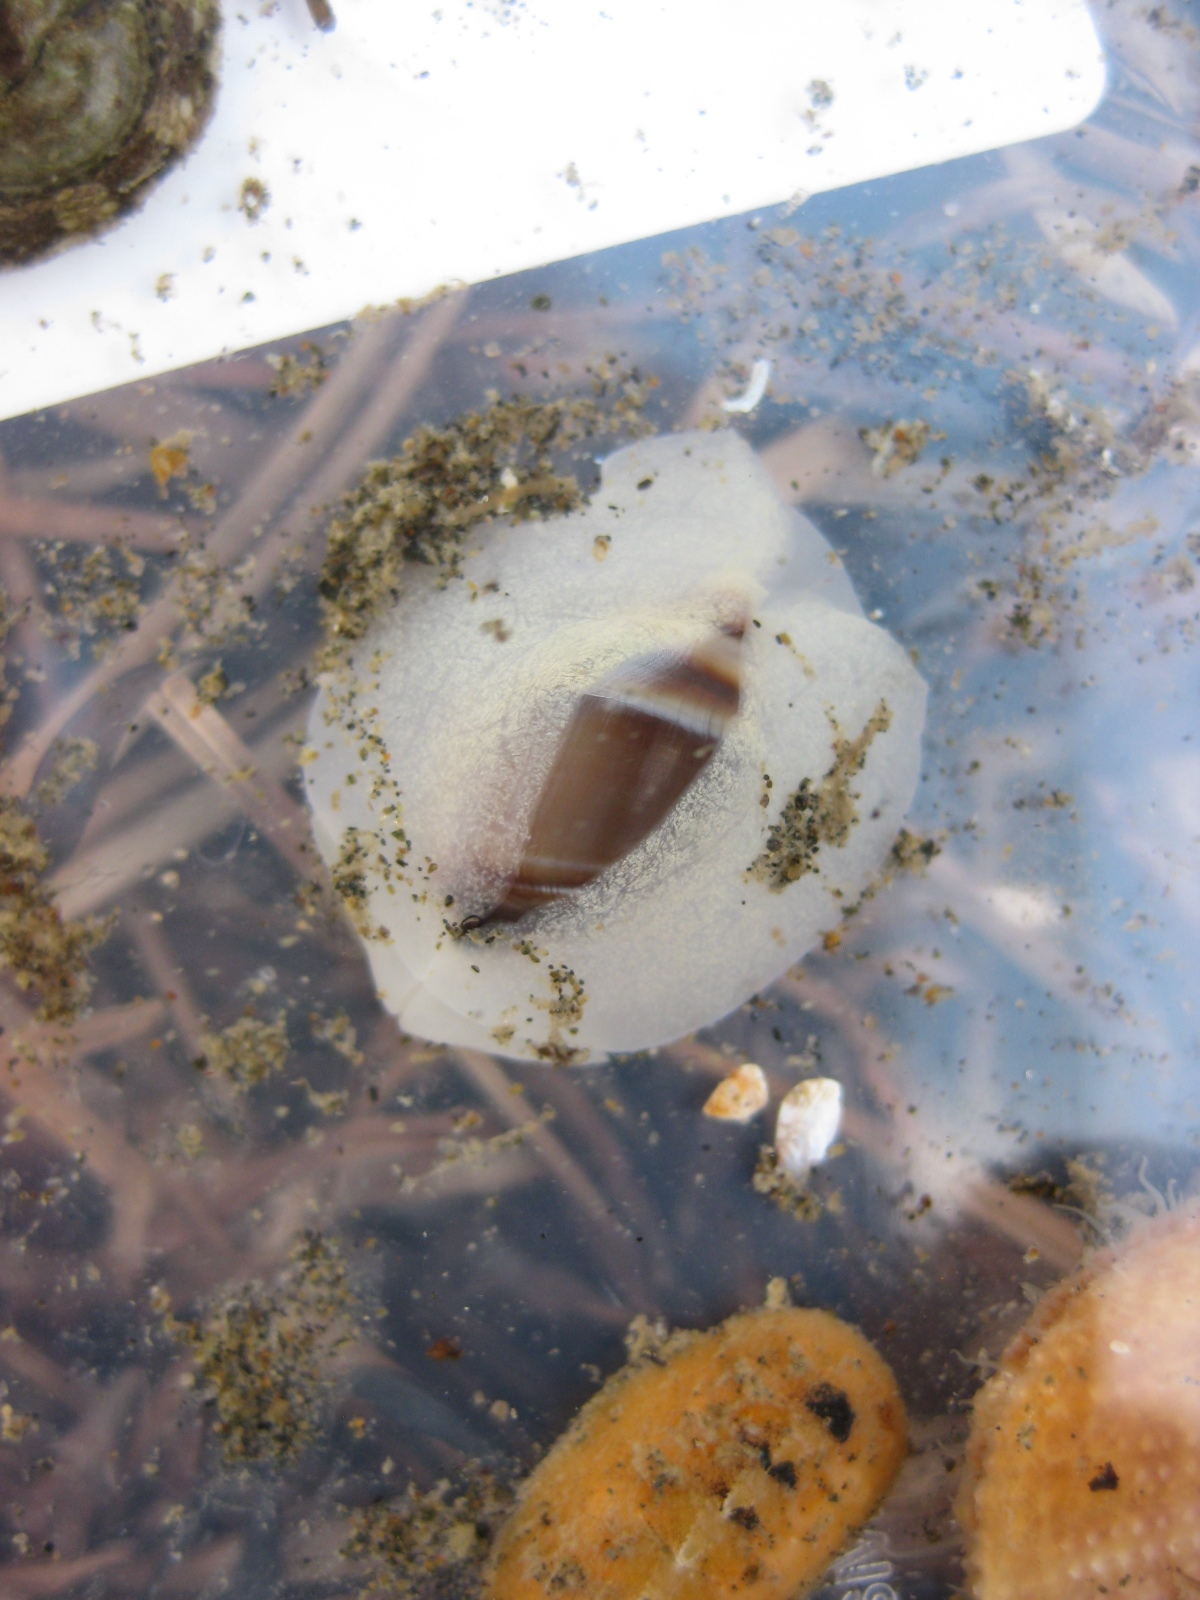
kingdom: Animalia
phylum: Mollusca
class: Gastropoda
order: Neogastropoda
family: Ancillariidae
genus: Amalda
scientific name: Amalda depressa
